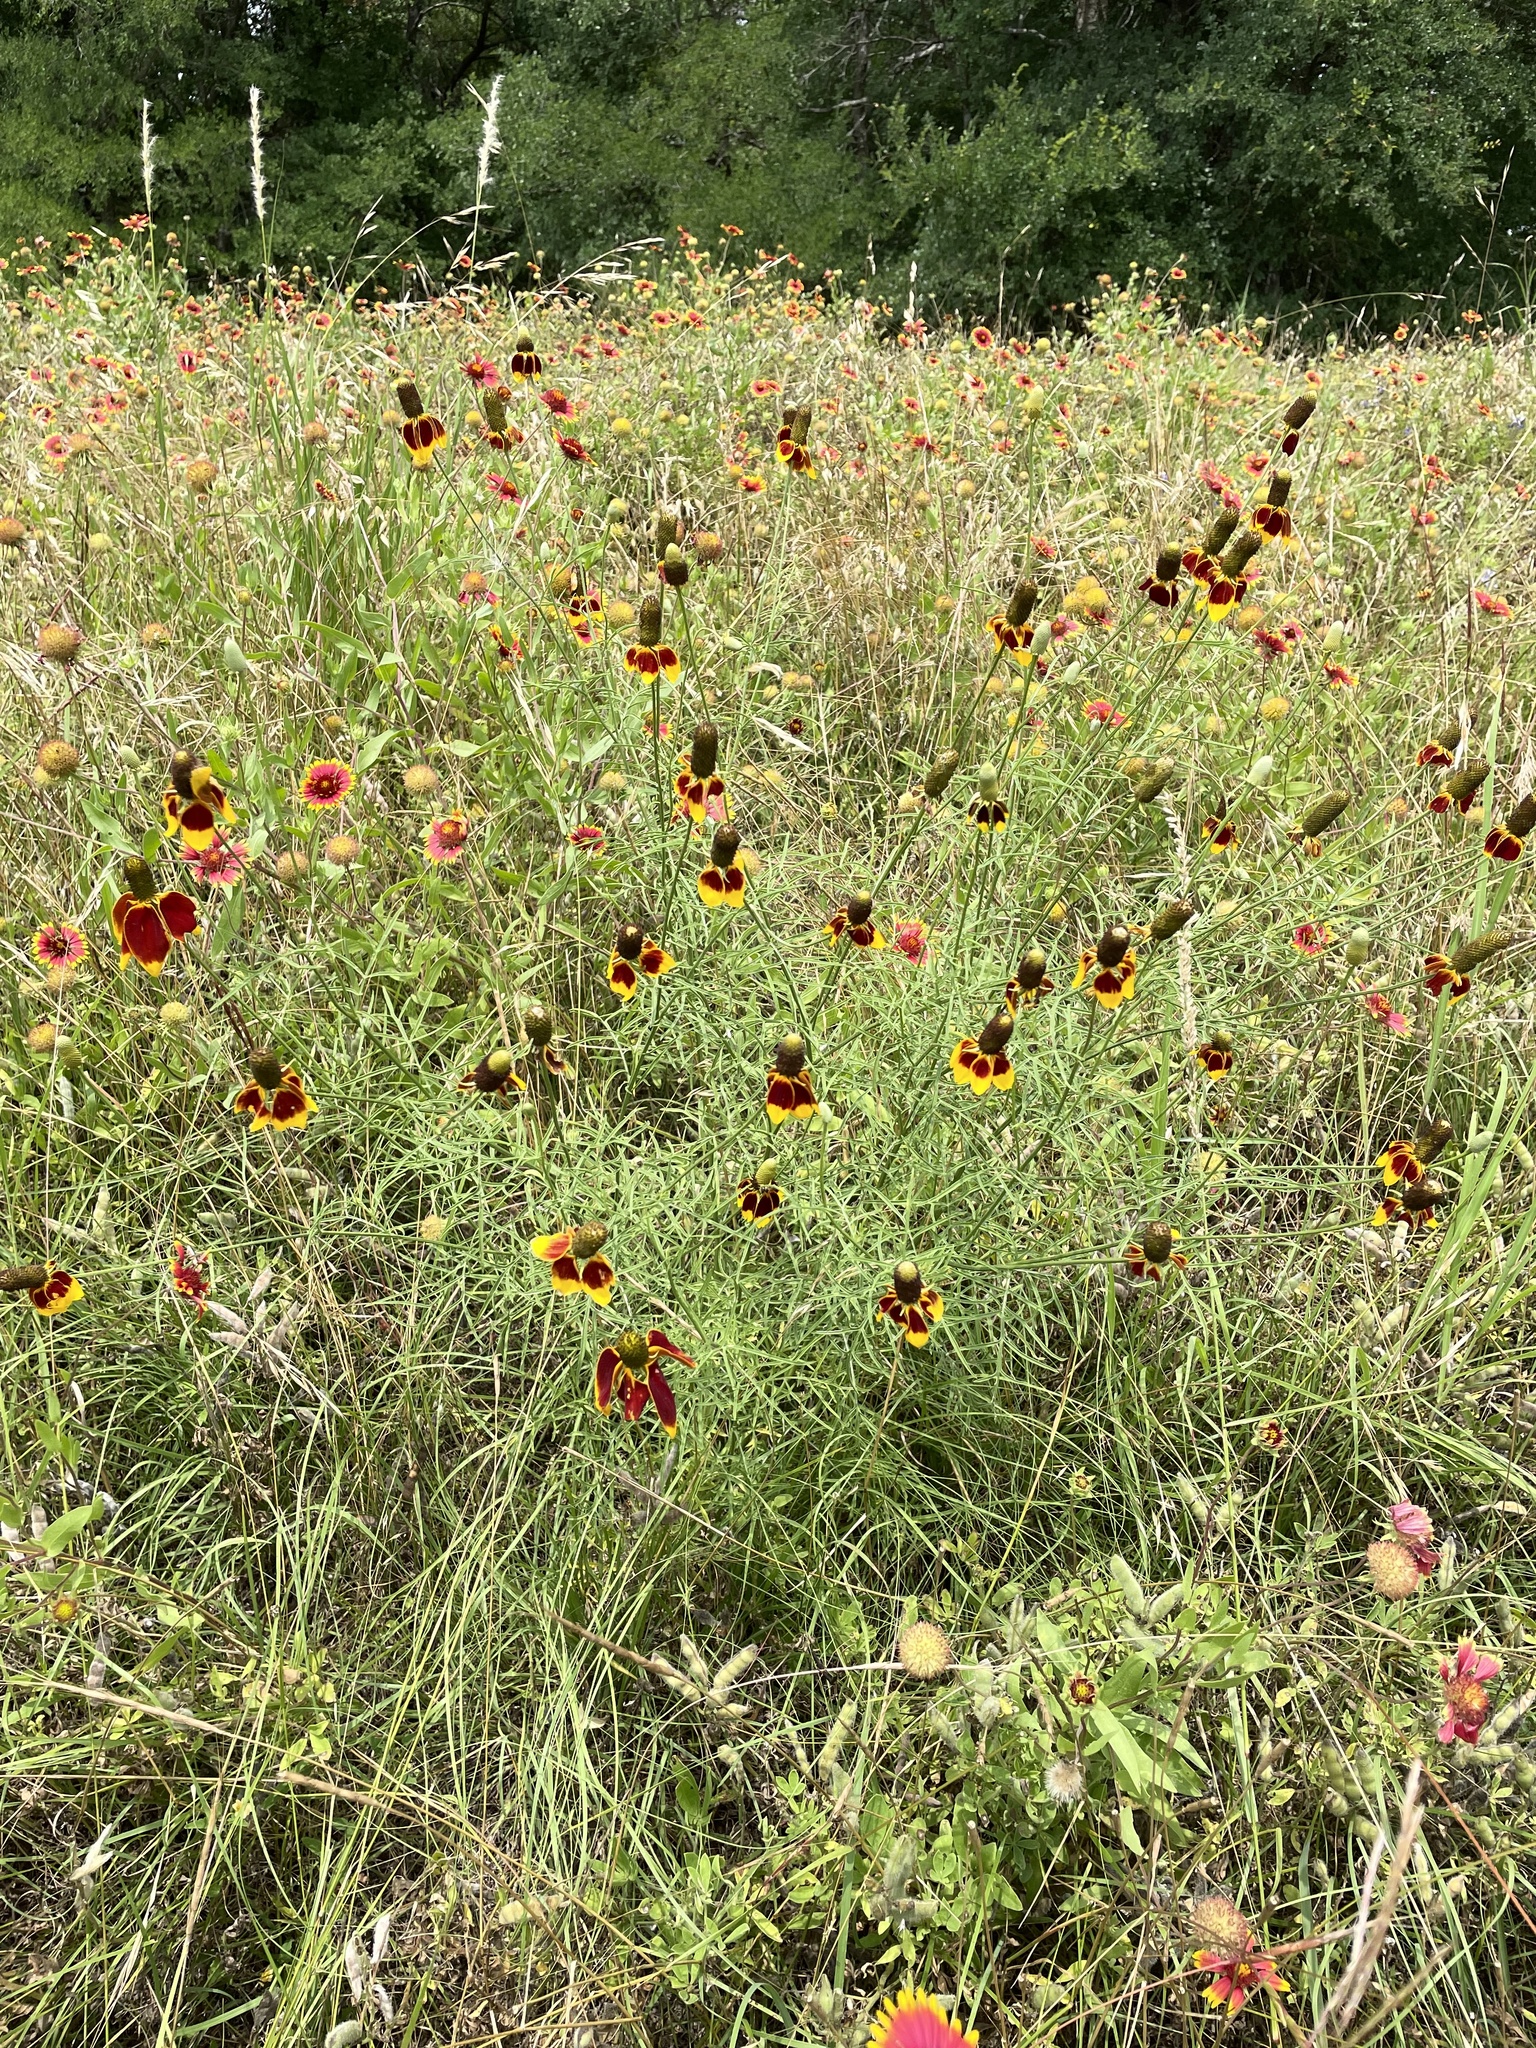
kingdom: Plantae
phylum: Tracheophyta
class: Magnoliopsida
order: Asterales
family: Asteraceae
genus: Ratibida
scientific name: Ratibida columnifera
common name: Prairie coneflower
